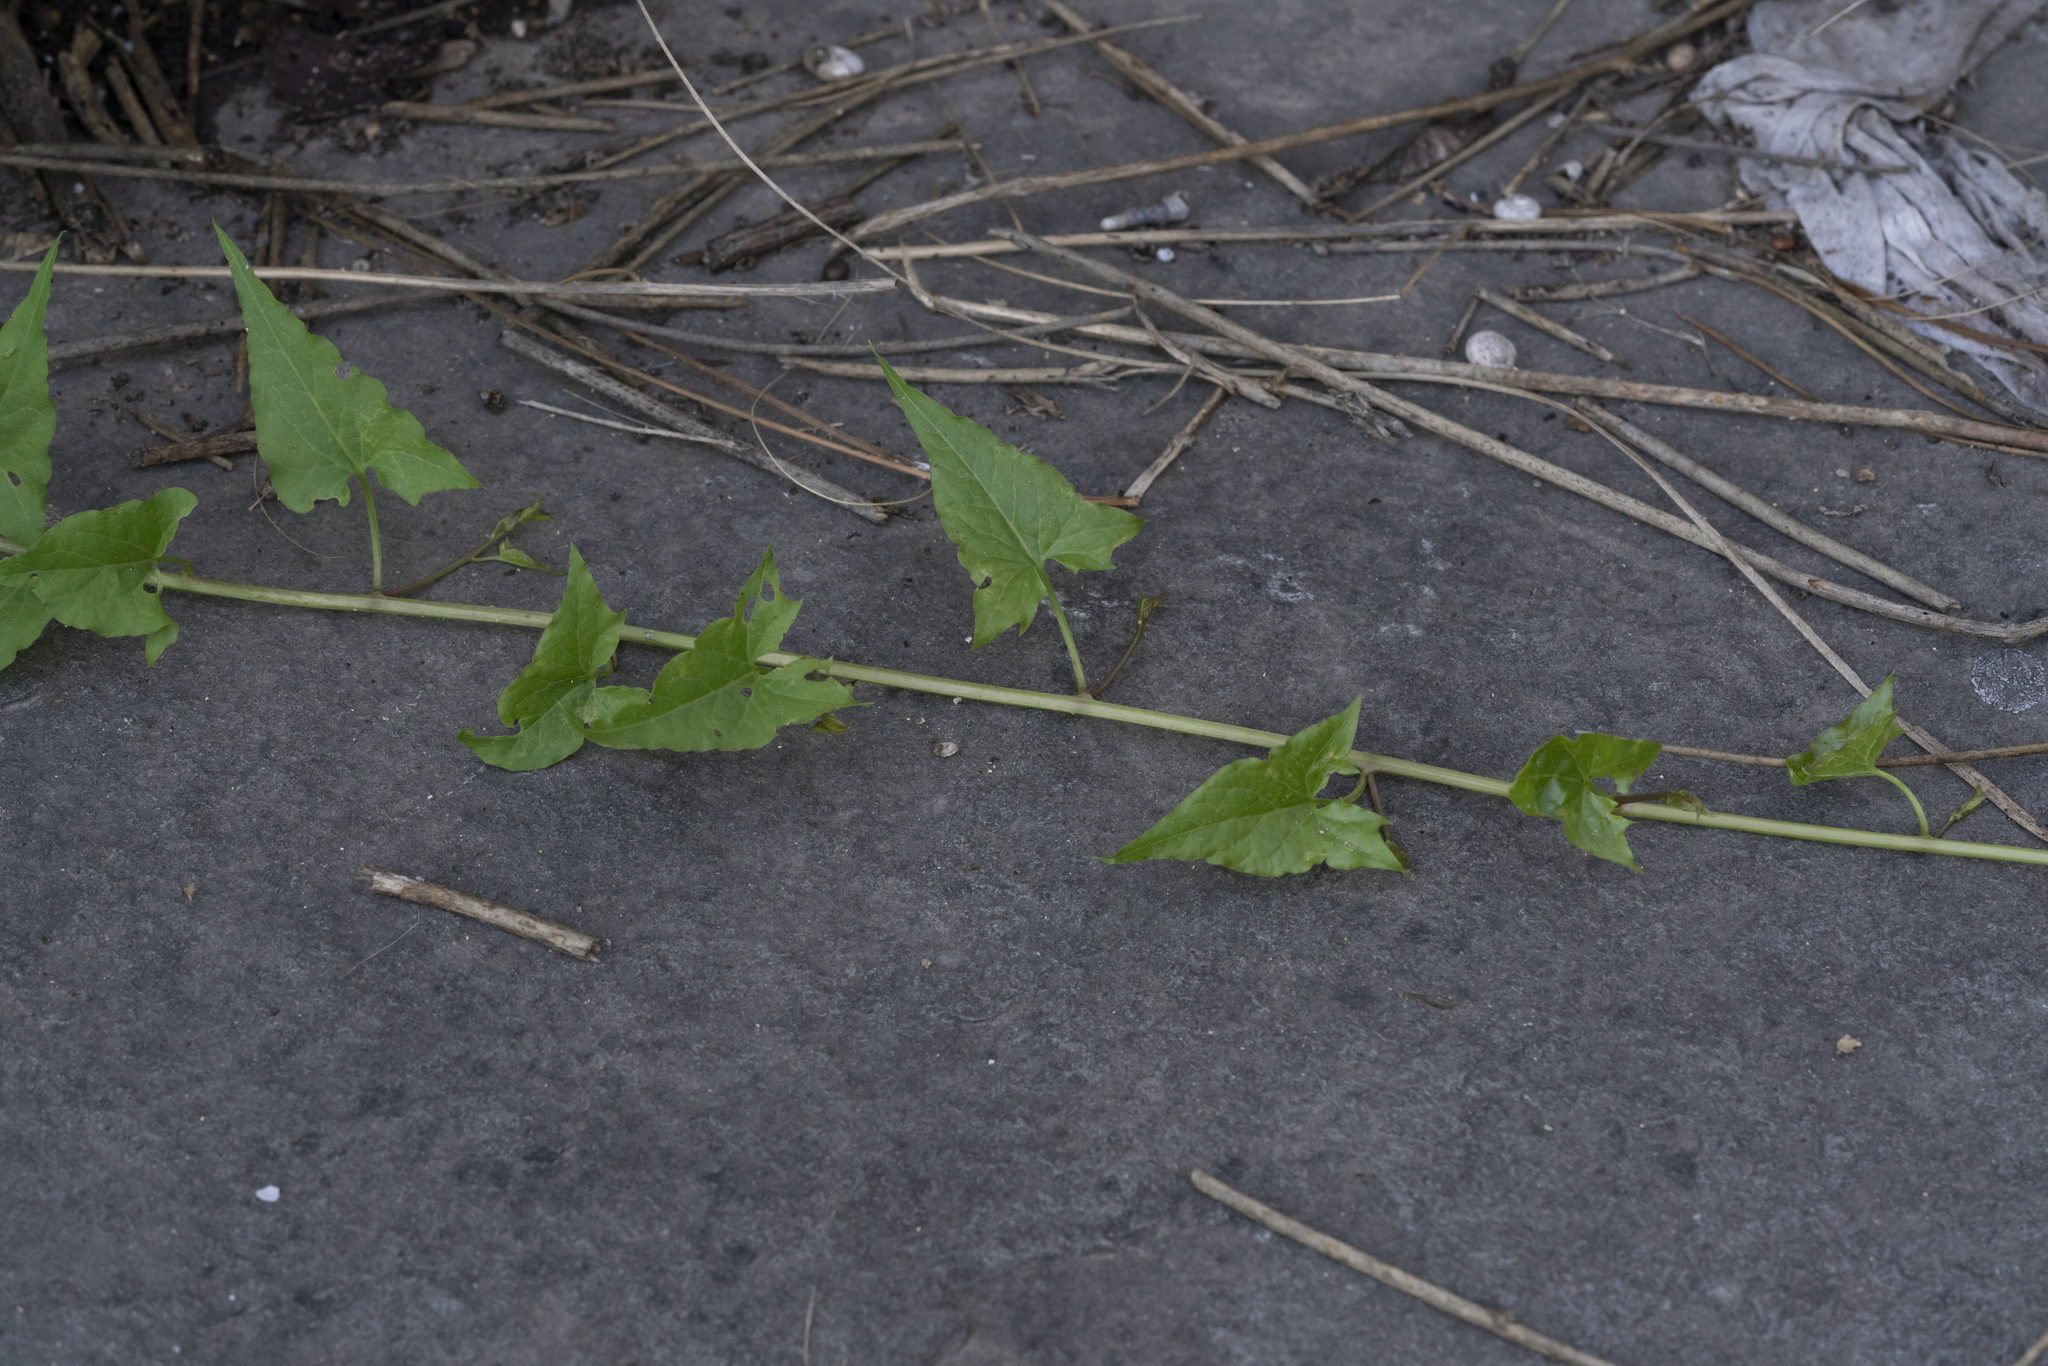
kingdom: Plantae
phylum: Tracheophyta
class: Magnoliopsida
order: Solanales
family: Convolvulaceae
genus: Convolvulus
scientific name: Convolvulus scammonia
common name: Scammony
